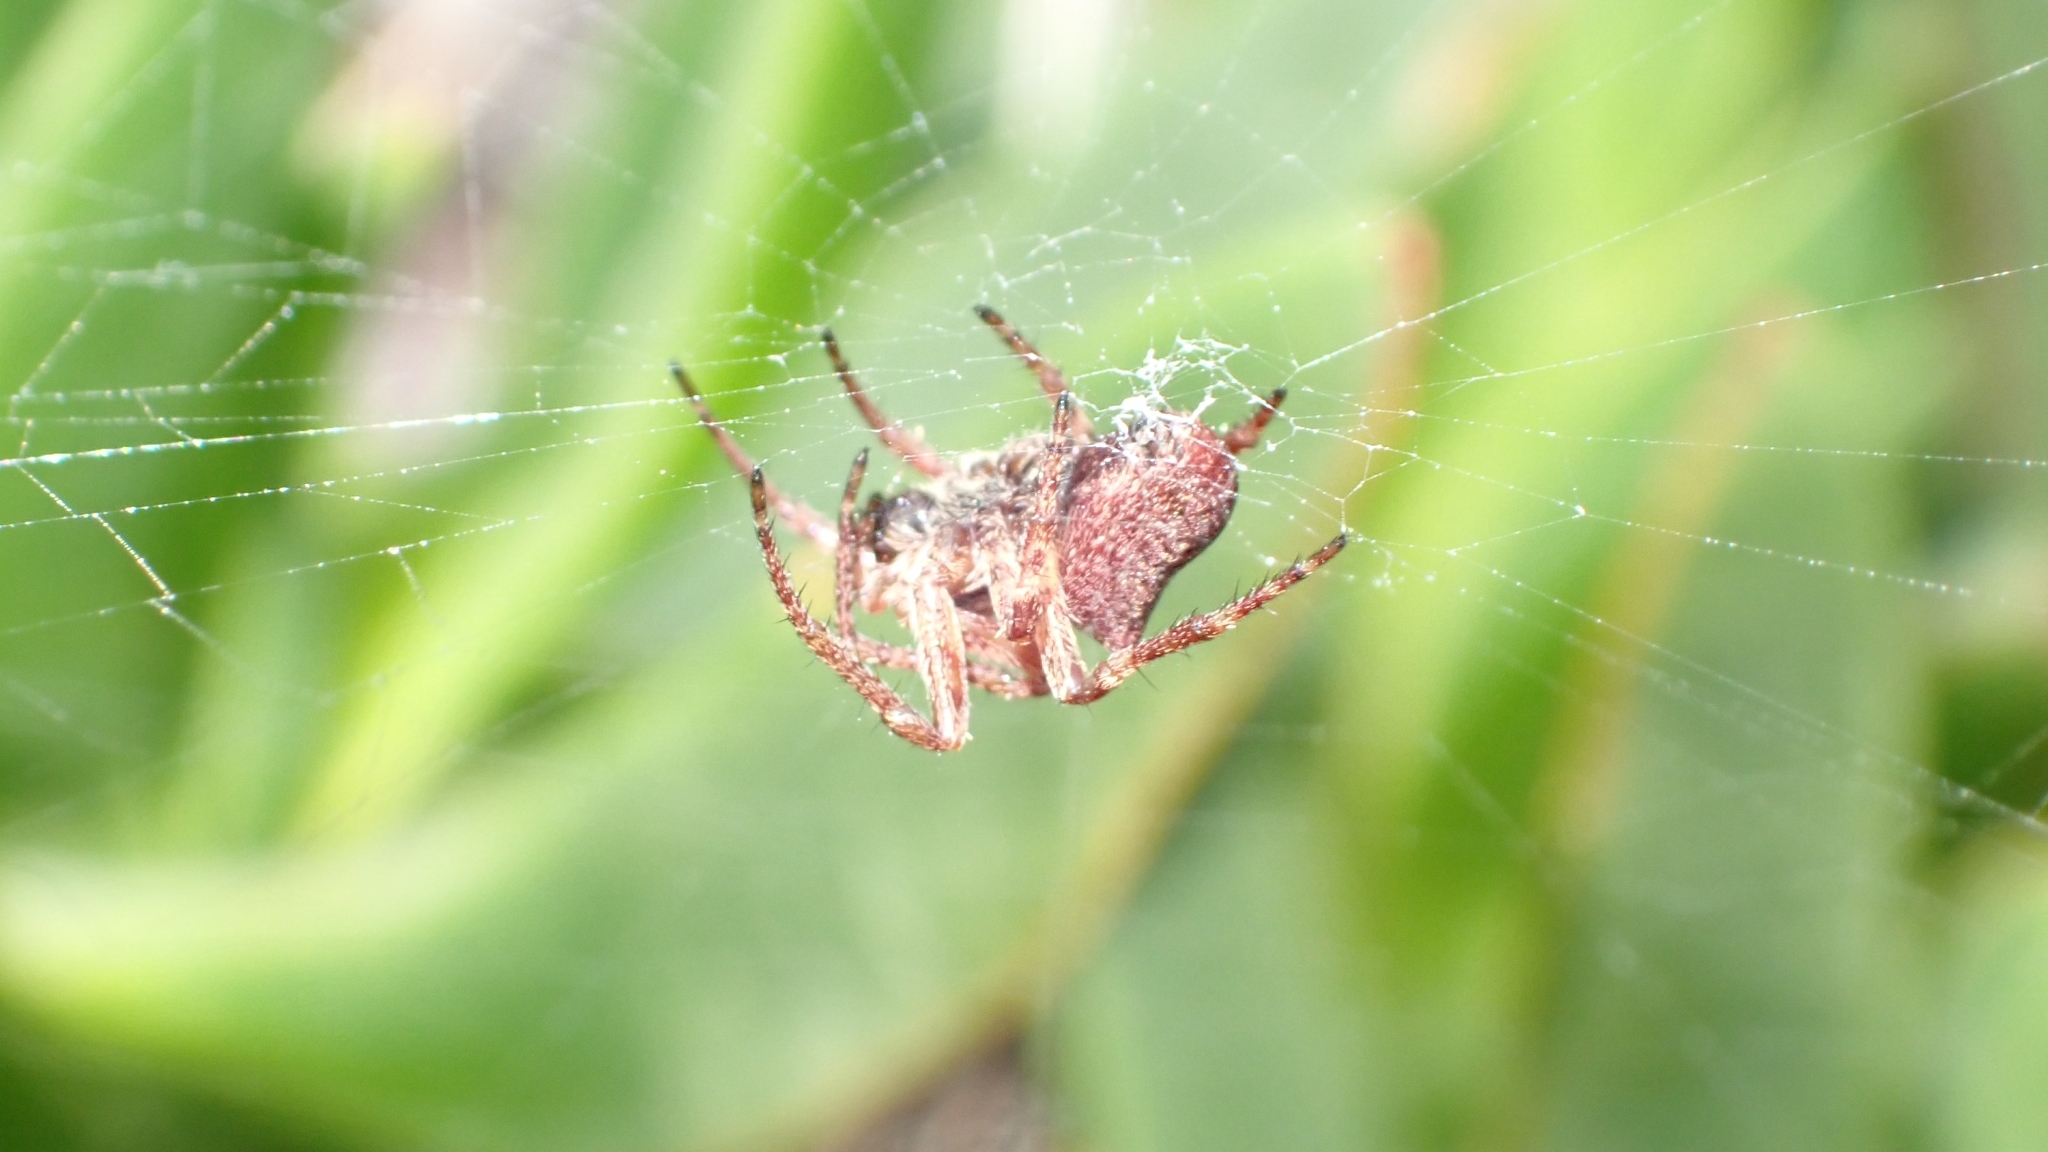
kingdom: Animalia
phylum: Arthropoda
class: Arachnida
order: Araneae
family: Araneidae
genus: Gibbaranea
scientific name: Gibbaranea bituberculata
